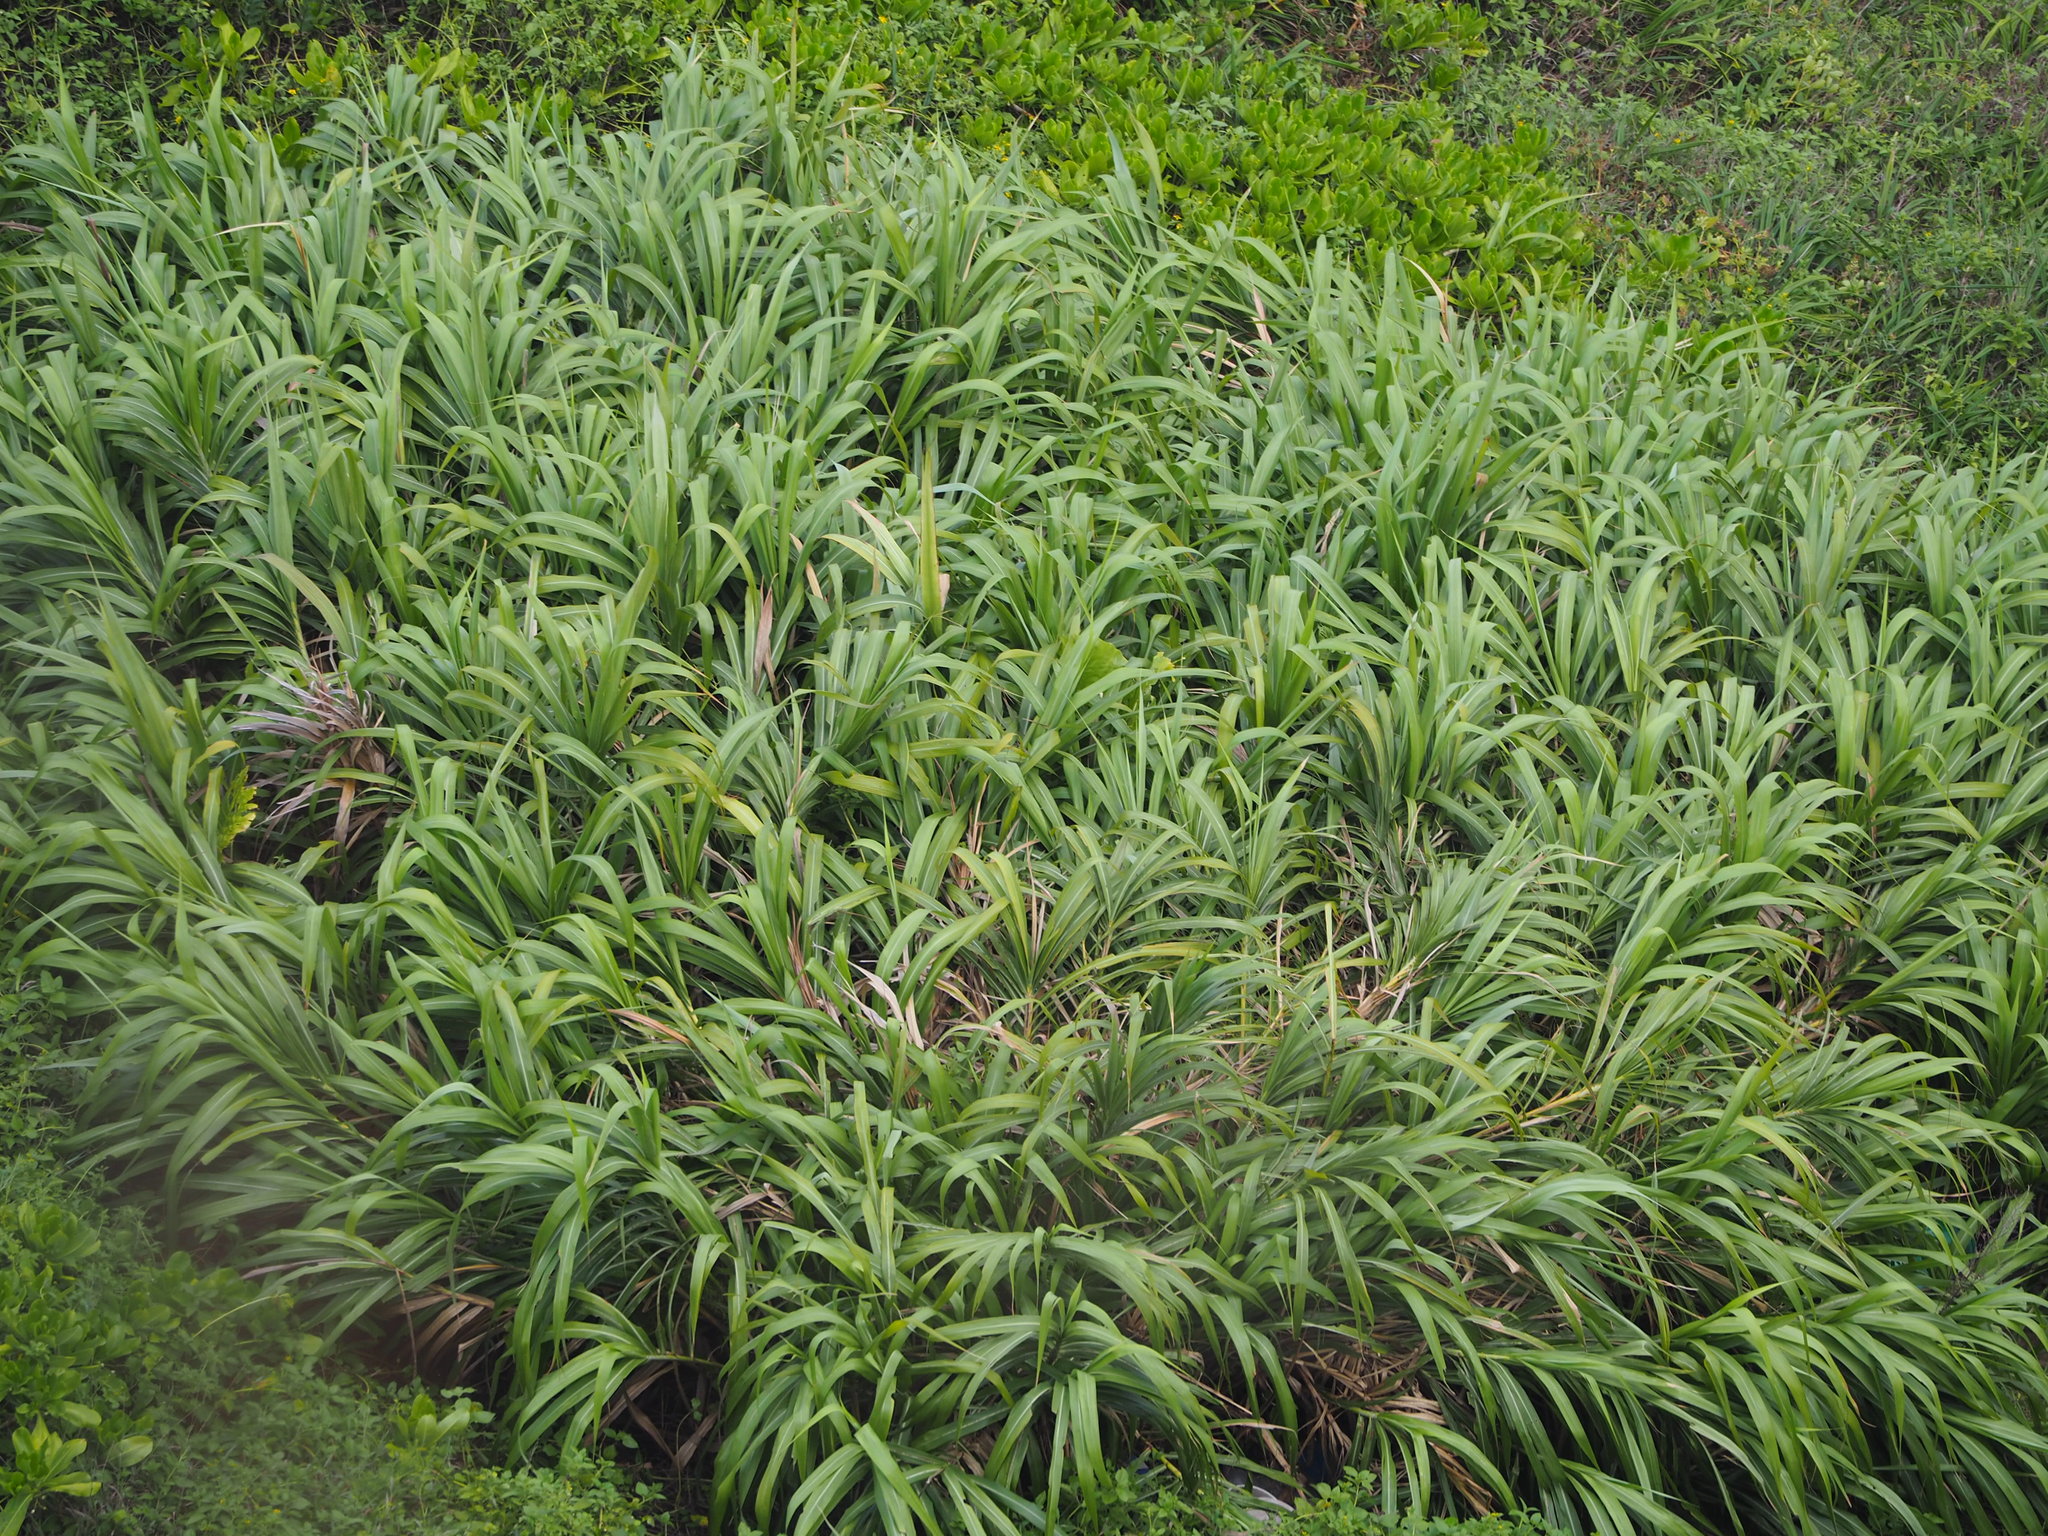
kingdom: Plantae
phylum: Tracheophyta
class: Liliopsida
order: Poales
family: Poaceae
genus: Miscanthus
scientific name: Miscanthus sinensis
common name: Chinese silvergrass
